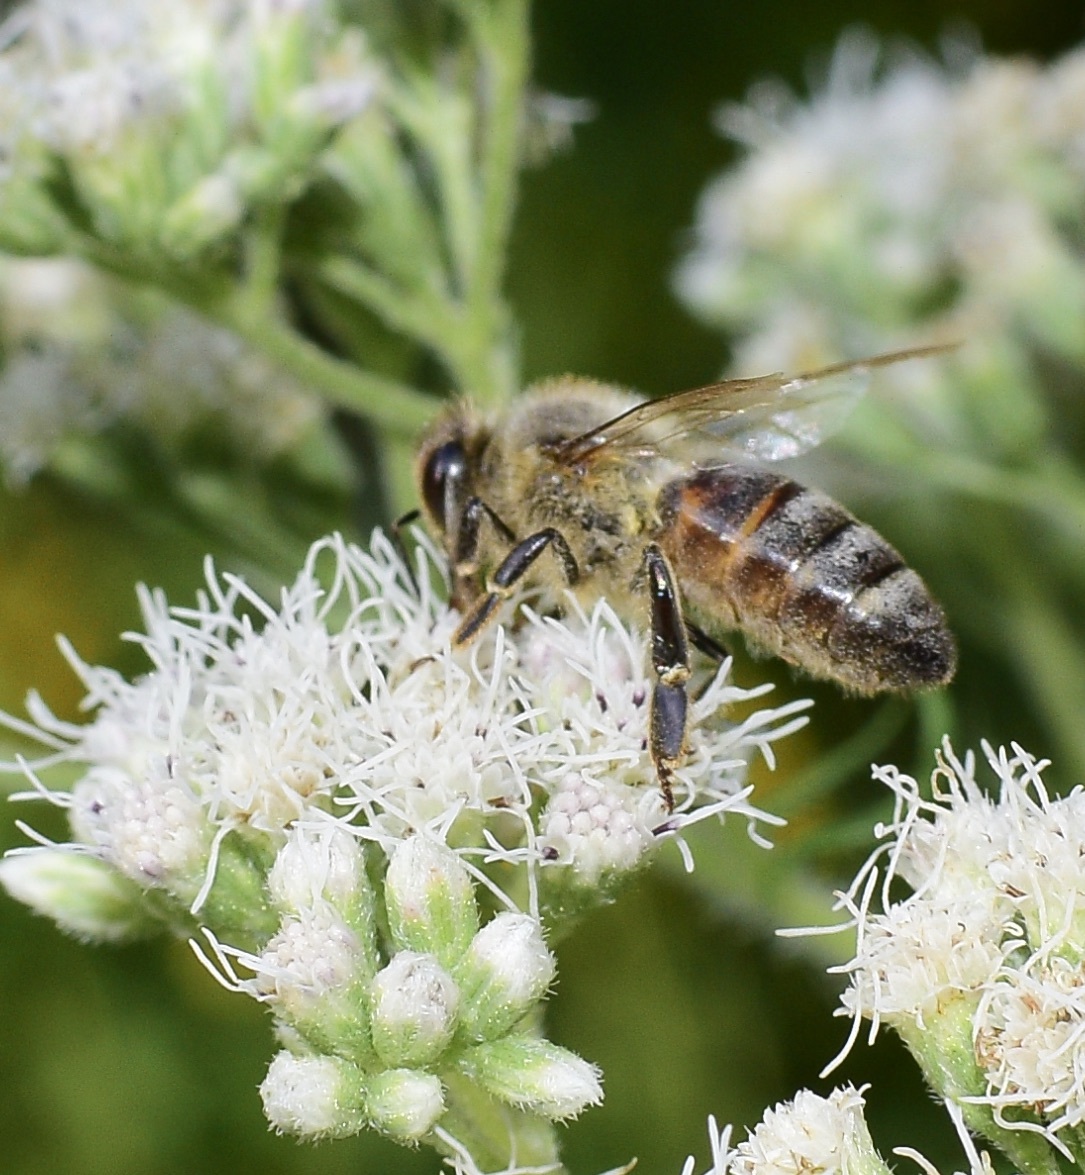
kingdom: Animalia
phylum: Arthropoda
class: Insecta
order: Hymenoptera
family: Apidae
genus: Apis
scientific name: Apis mellifera
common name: Honey bee
